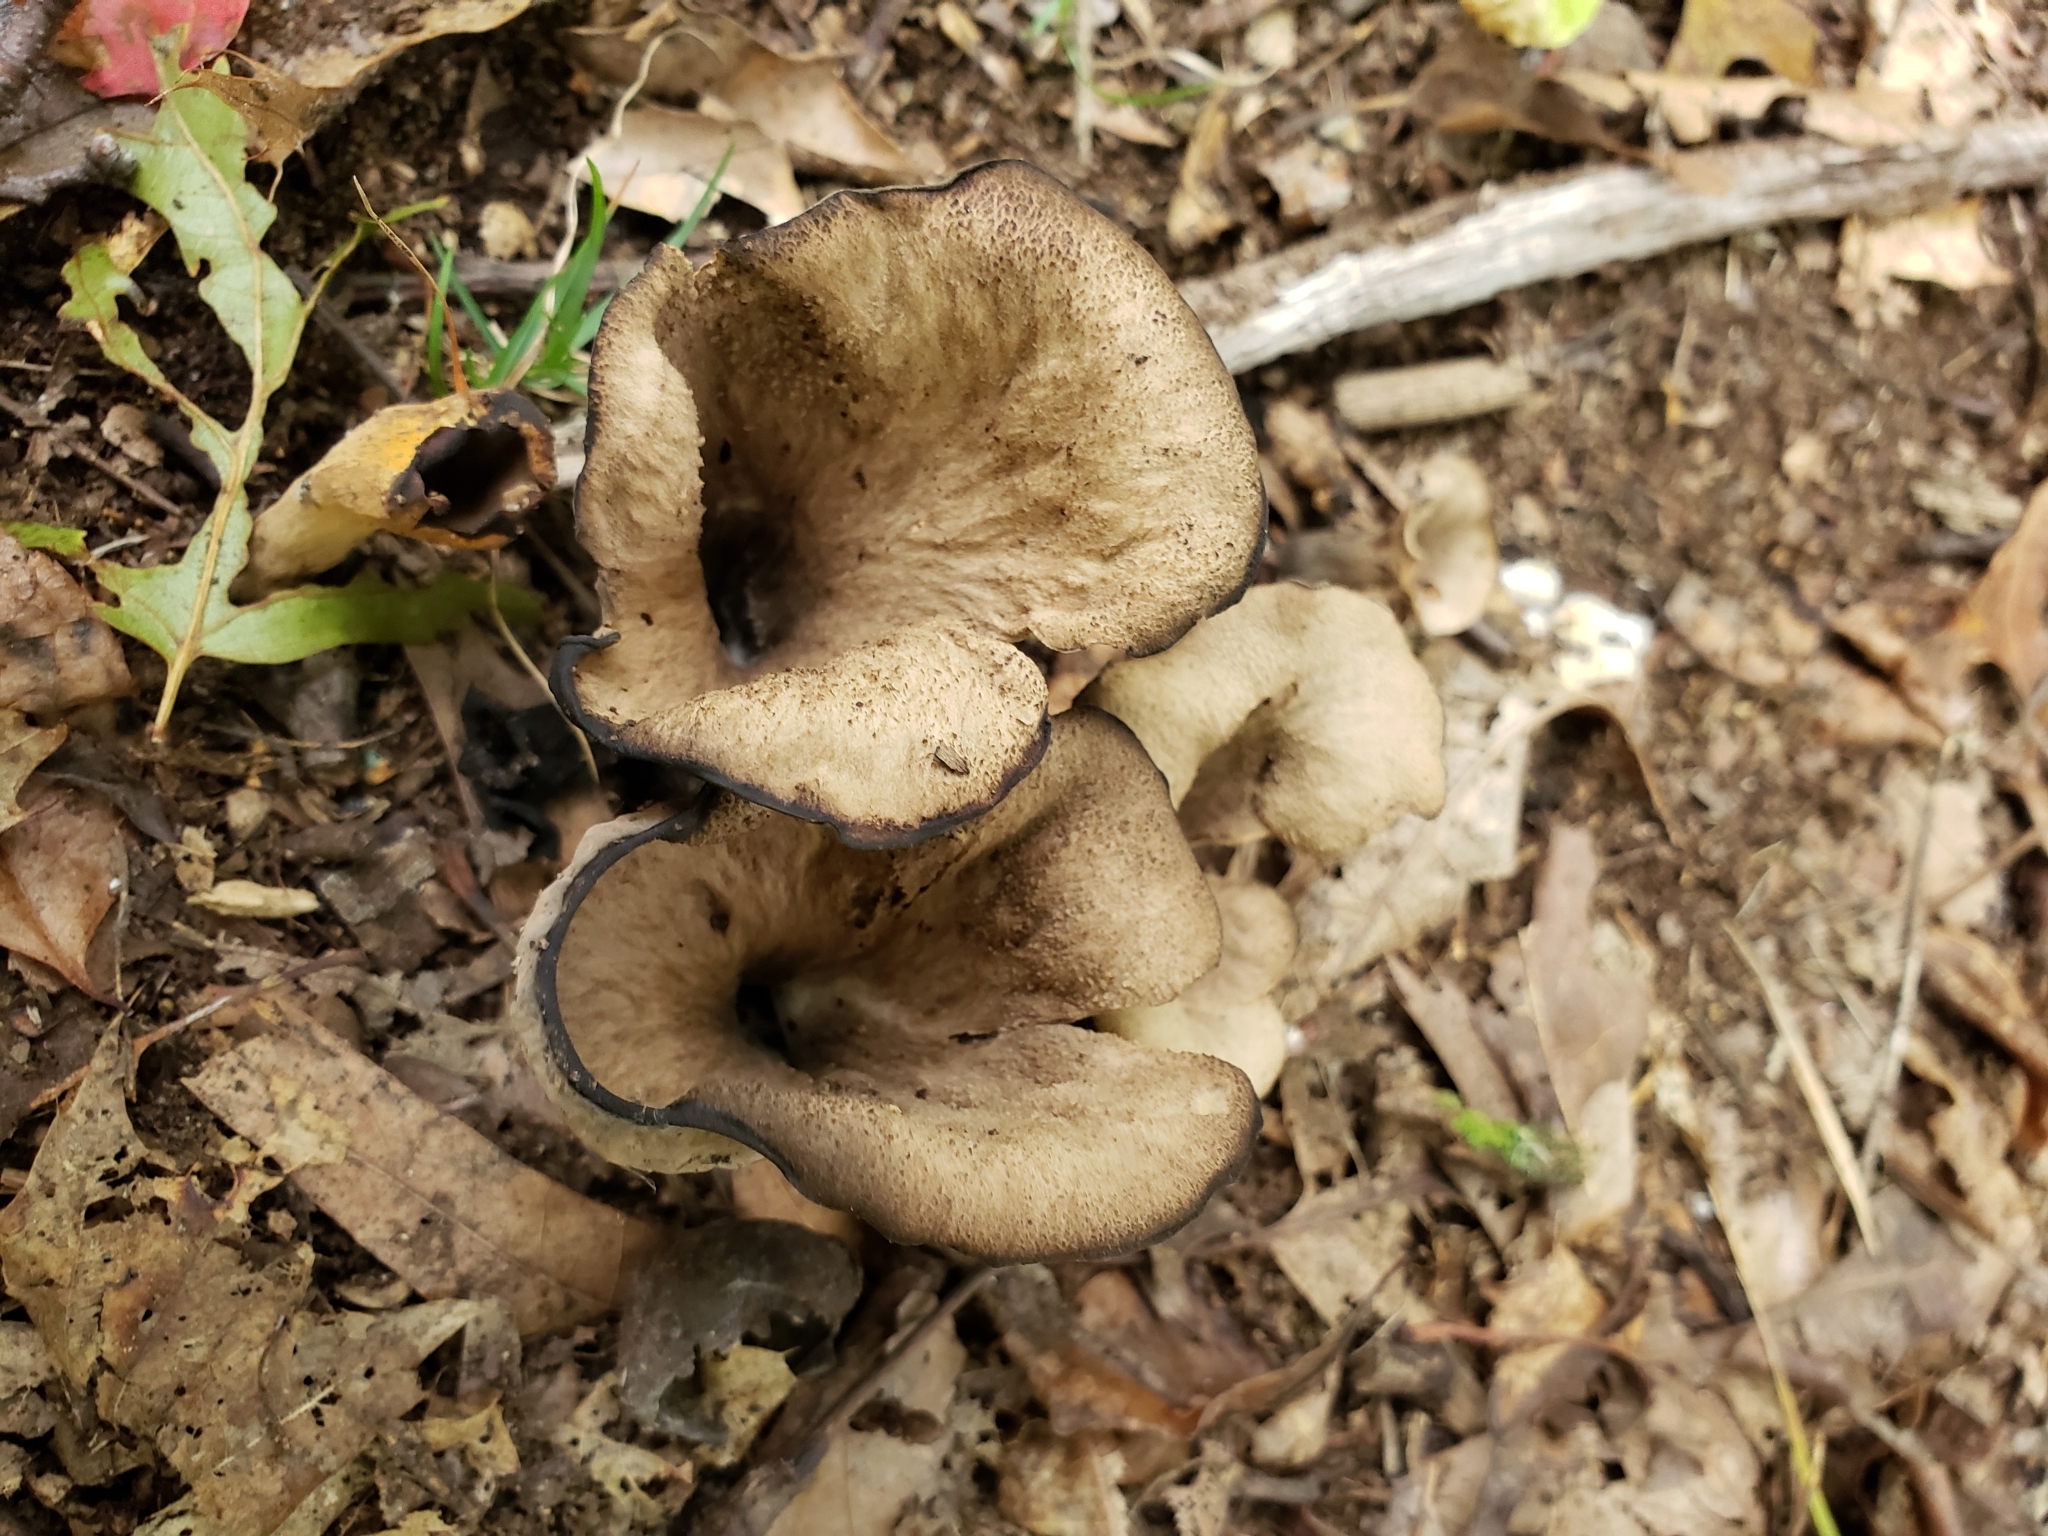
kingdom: Fungi
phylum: Basidiomycota
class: Agaricomycetes
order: Cantharellales
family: Hydnaceae
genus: Craterellus
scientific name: Craterellus cornucopioides
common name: Horn of plenty
